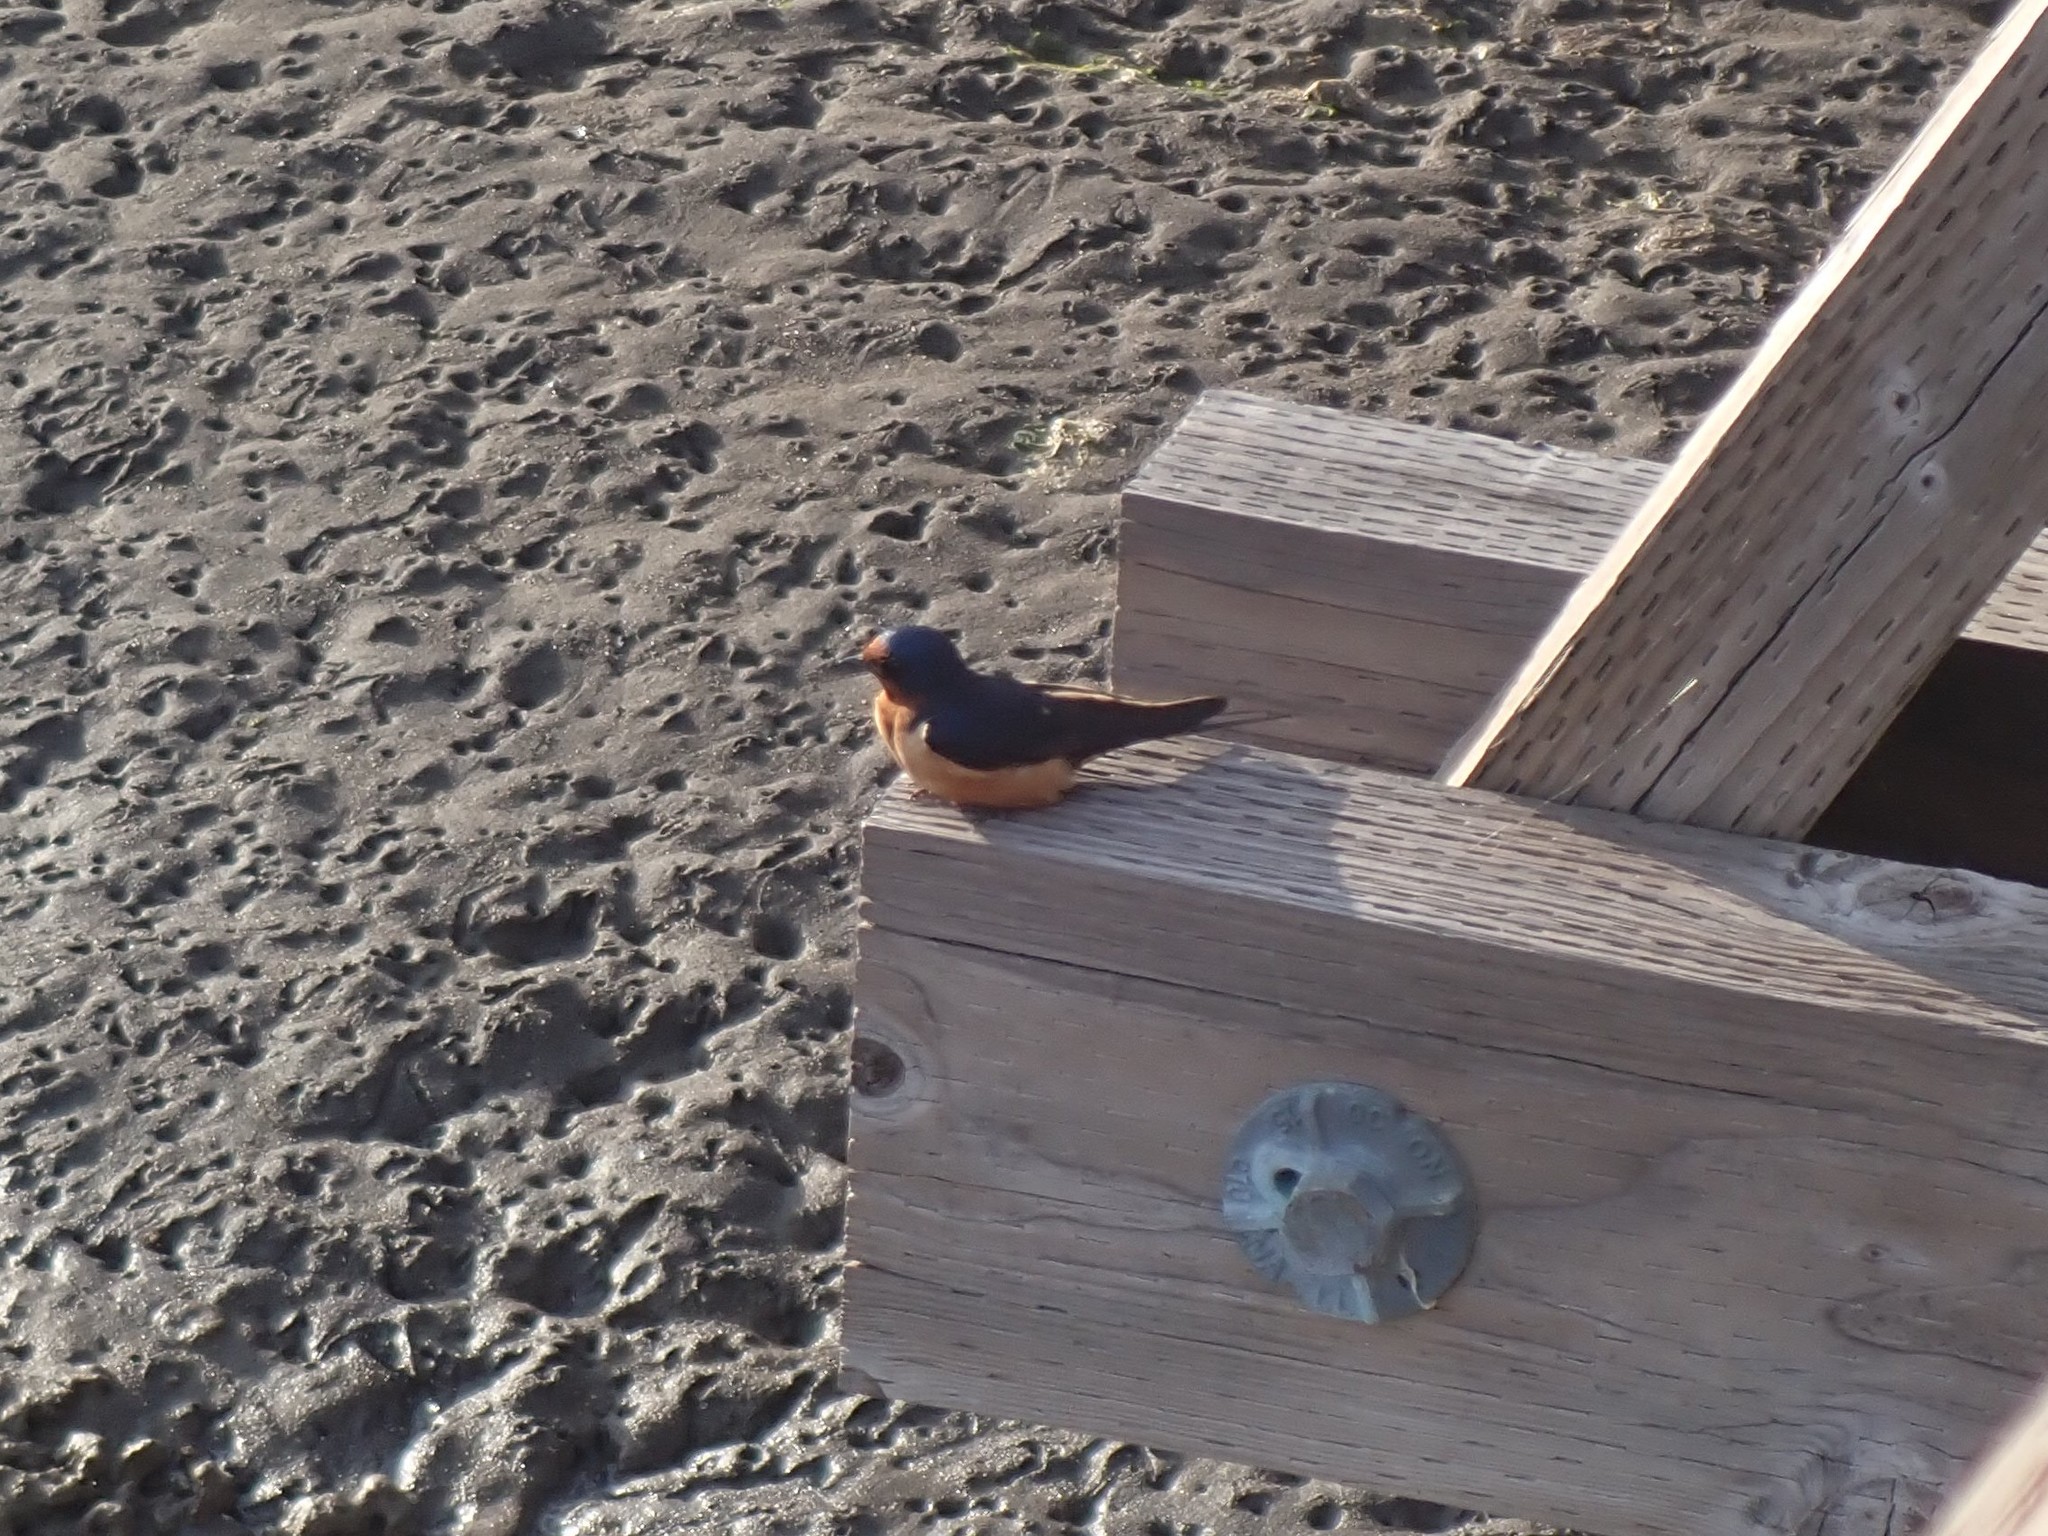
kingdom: Animalia
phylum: Chordata
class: Aves
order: Passeriformes
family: Hirundinidae
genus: Hirundo
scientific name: Hirundo rustica
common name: Barn swallow
